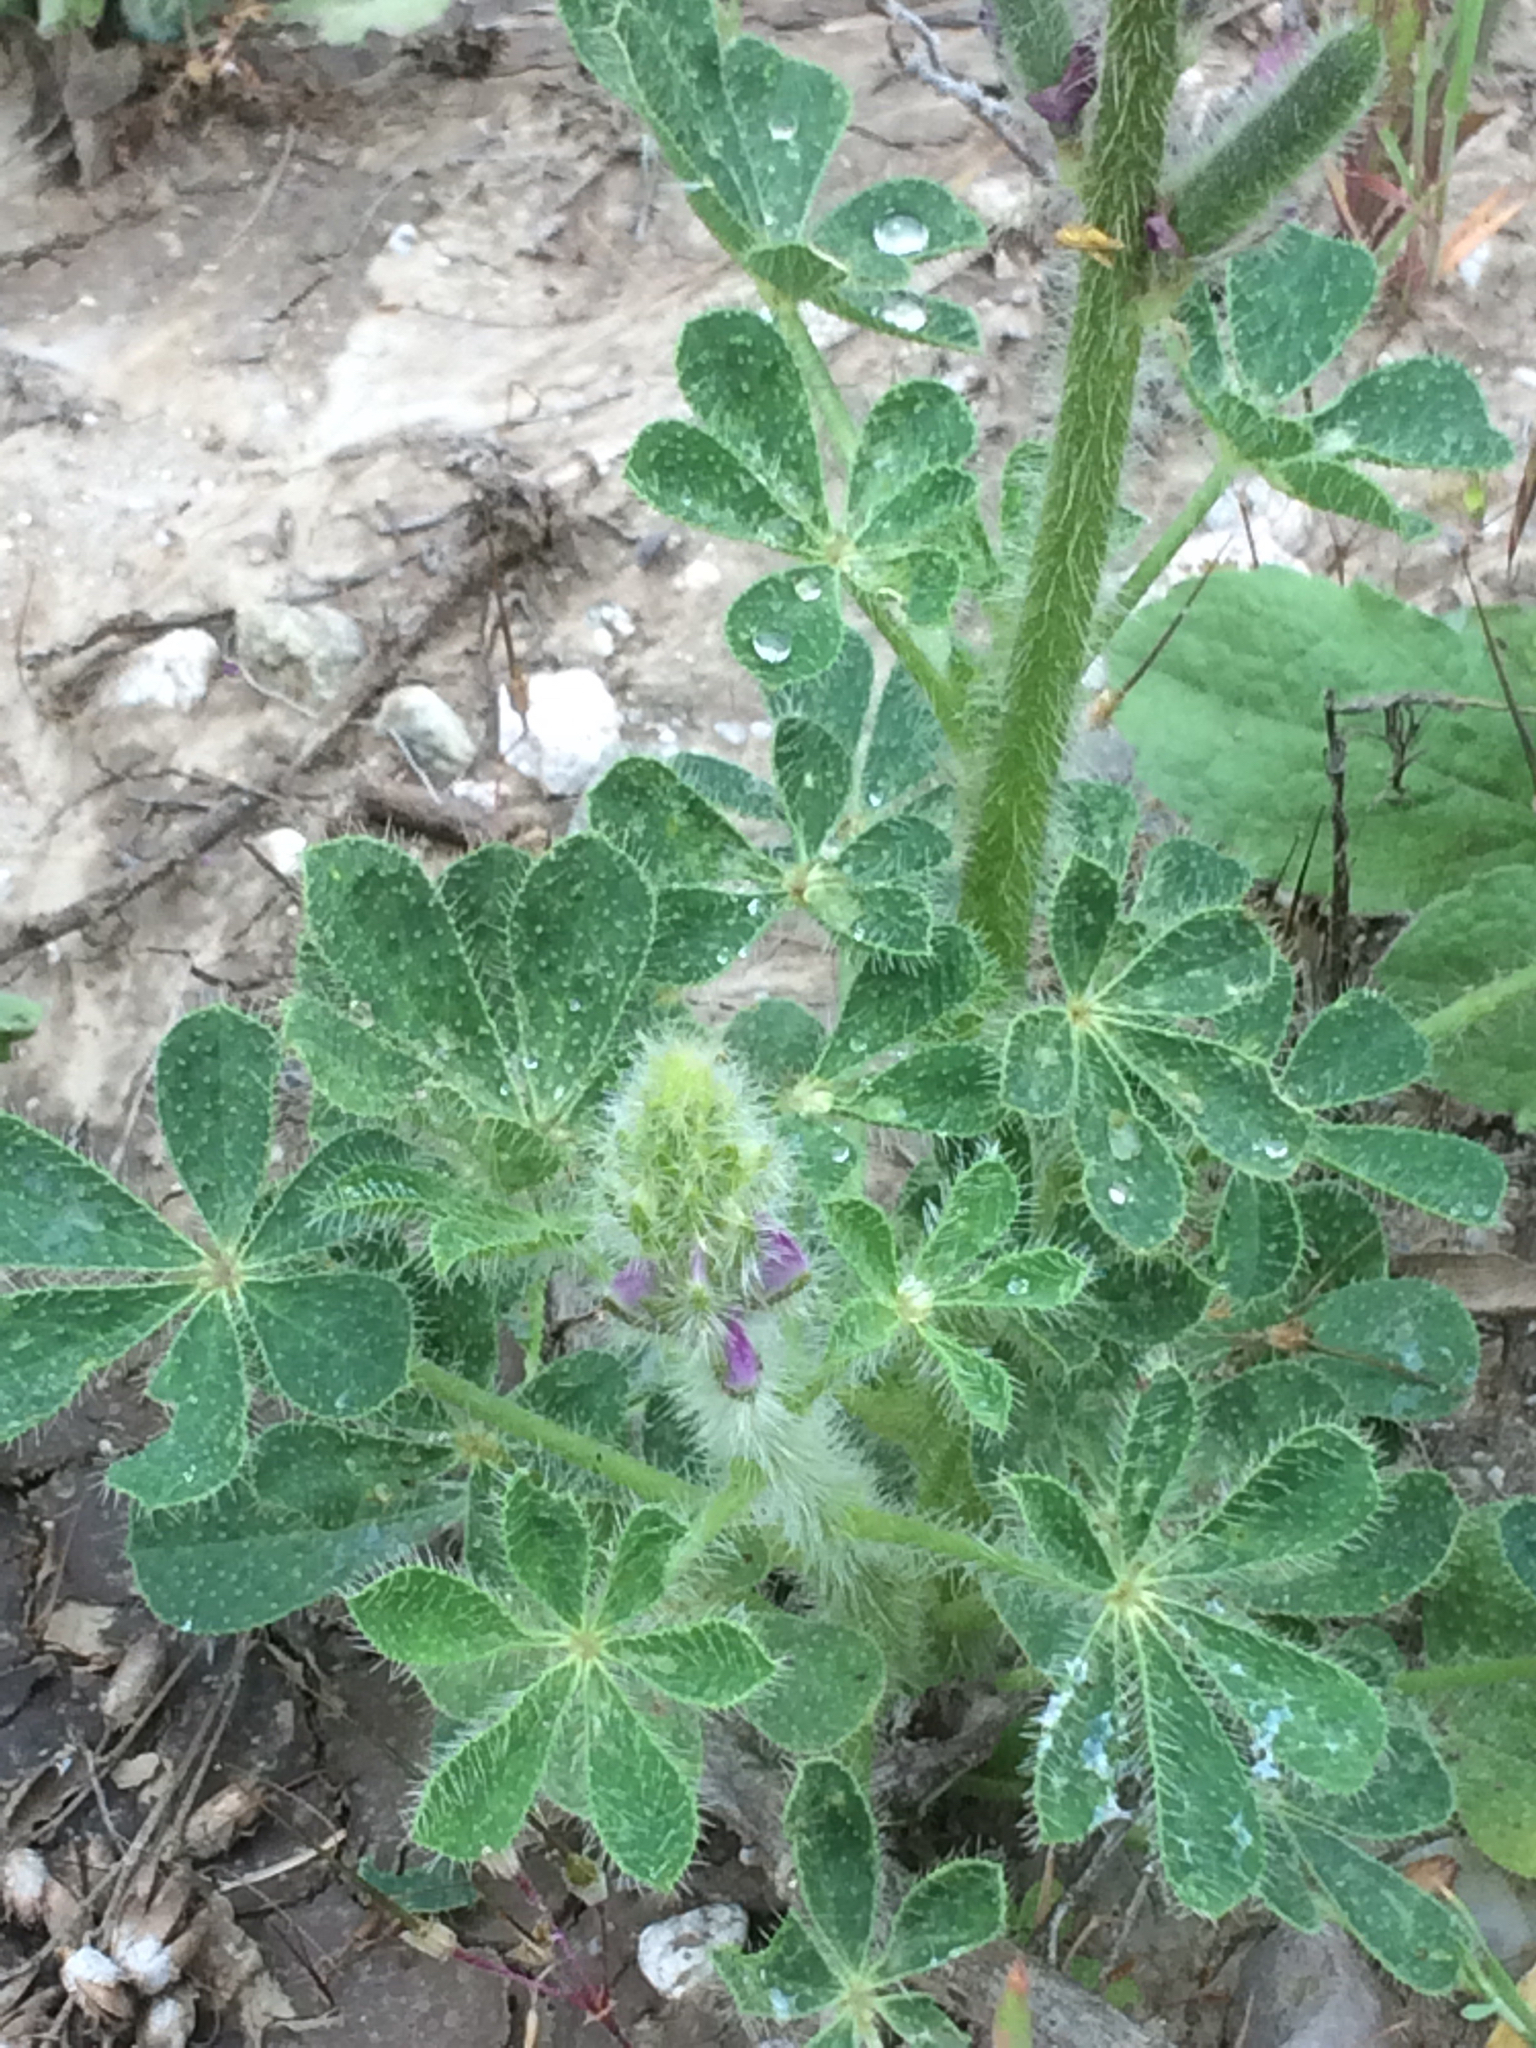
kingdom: Plantae
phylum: Tracheophyta
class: Magnoliopsida
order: Fabales
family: Fabaceae
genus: Lupinus
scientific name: Lupinus hirsutissimus
